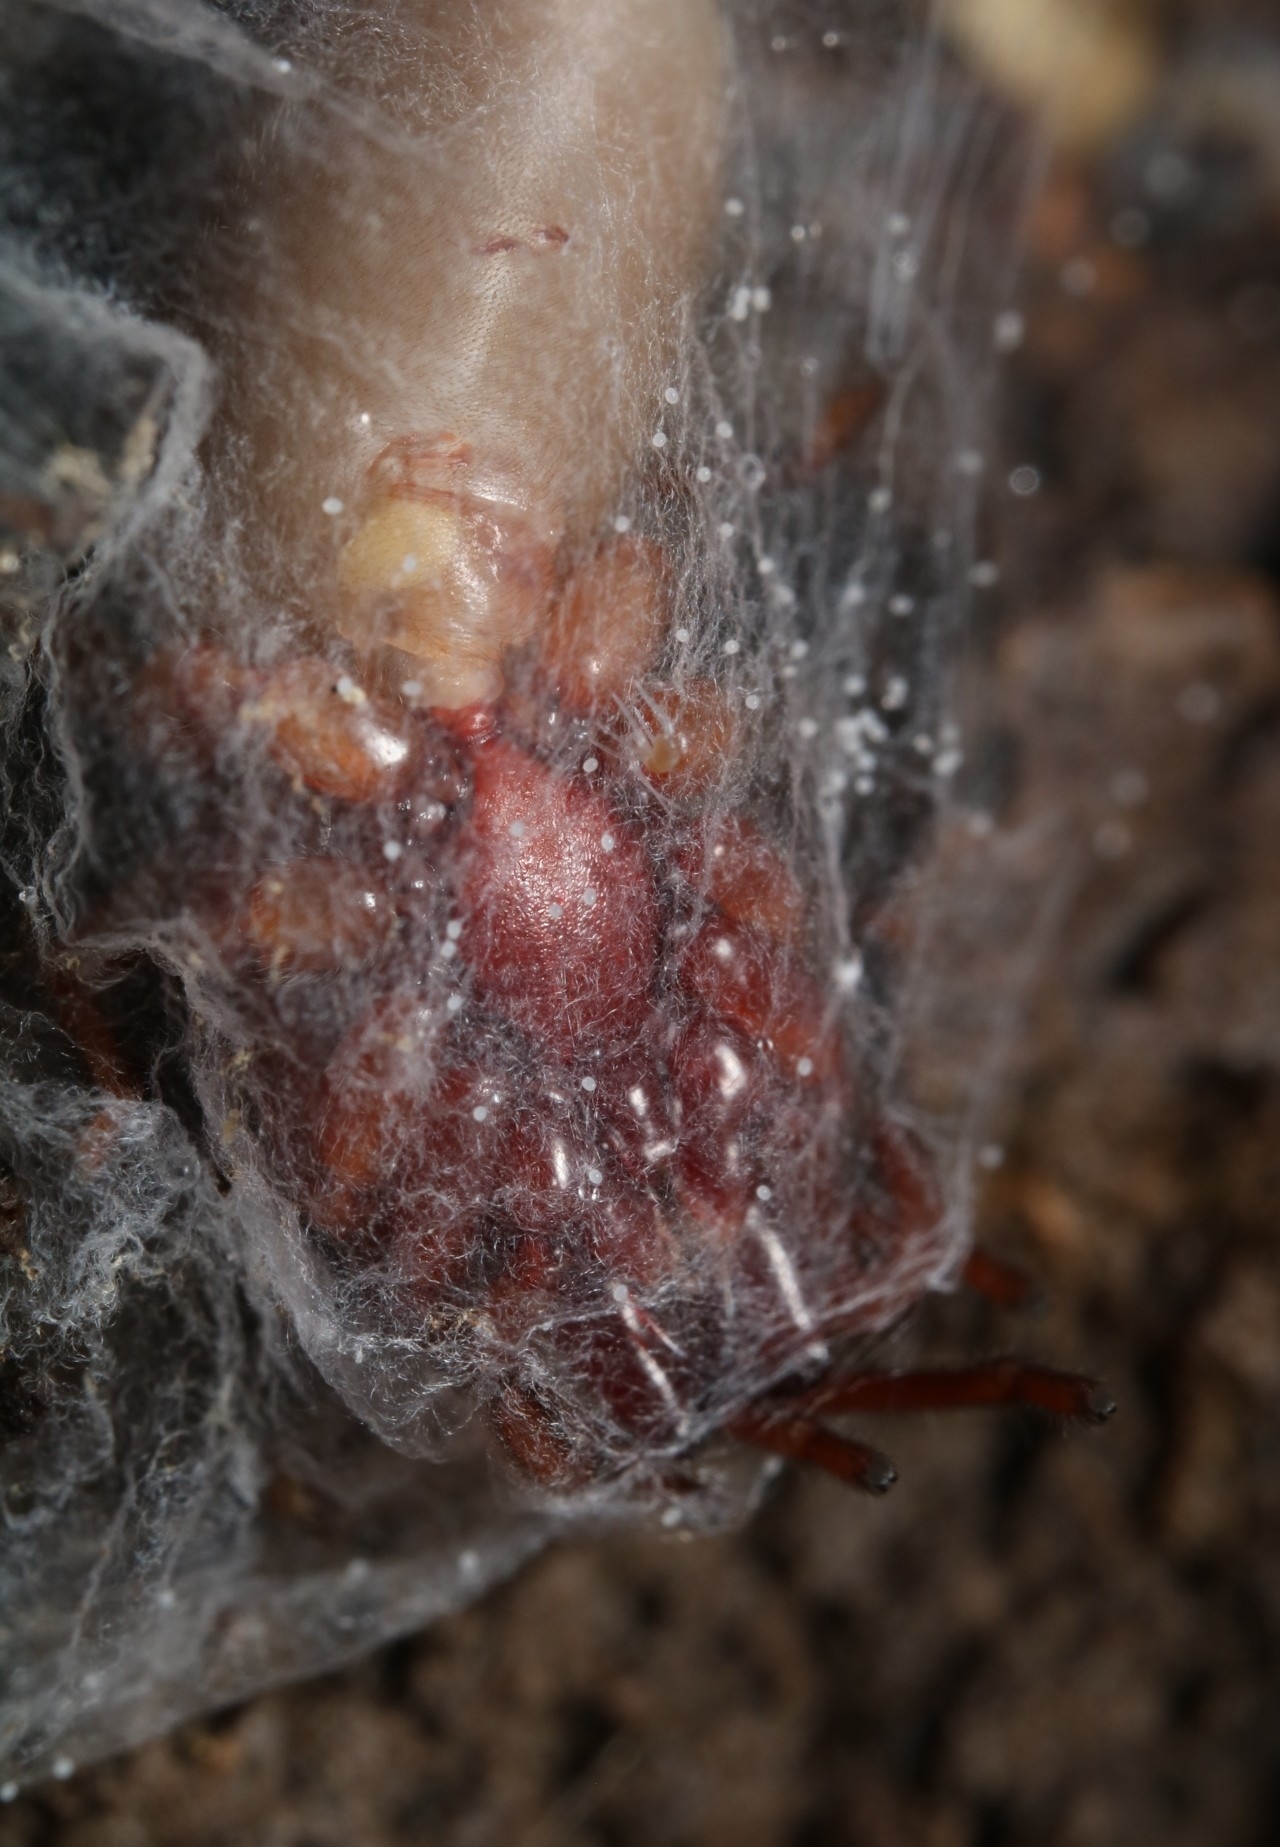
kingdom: Animalia
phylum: Arthropoda
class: Arachnida
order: Araneae
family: Dysderidae
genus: Dysdera
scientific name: Dysdera crocata
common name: Woodlouse spider
